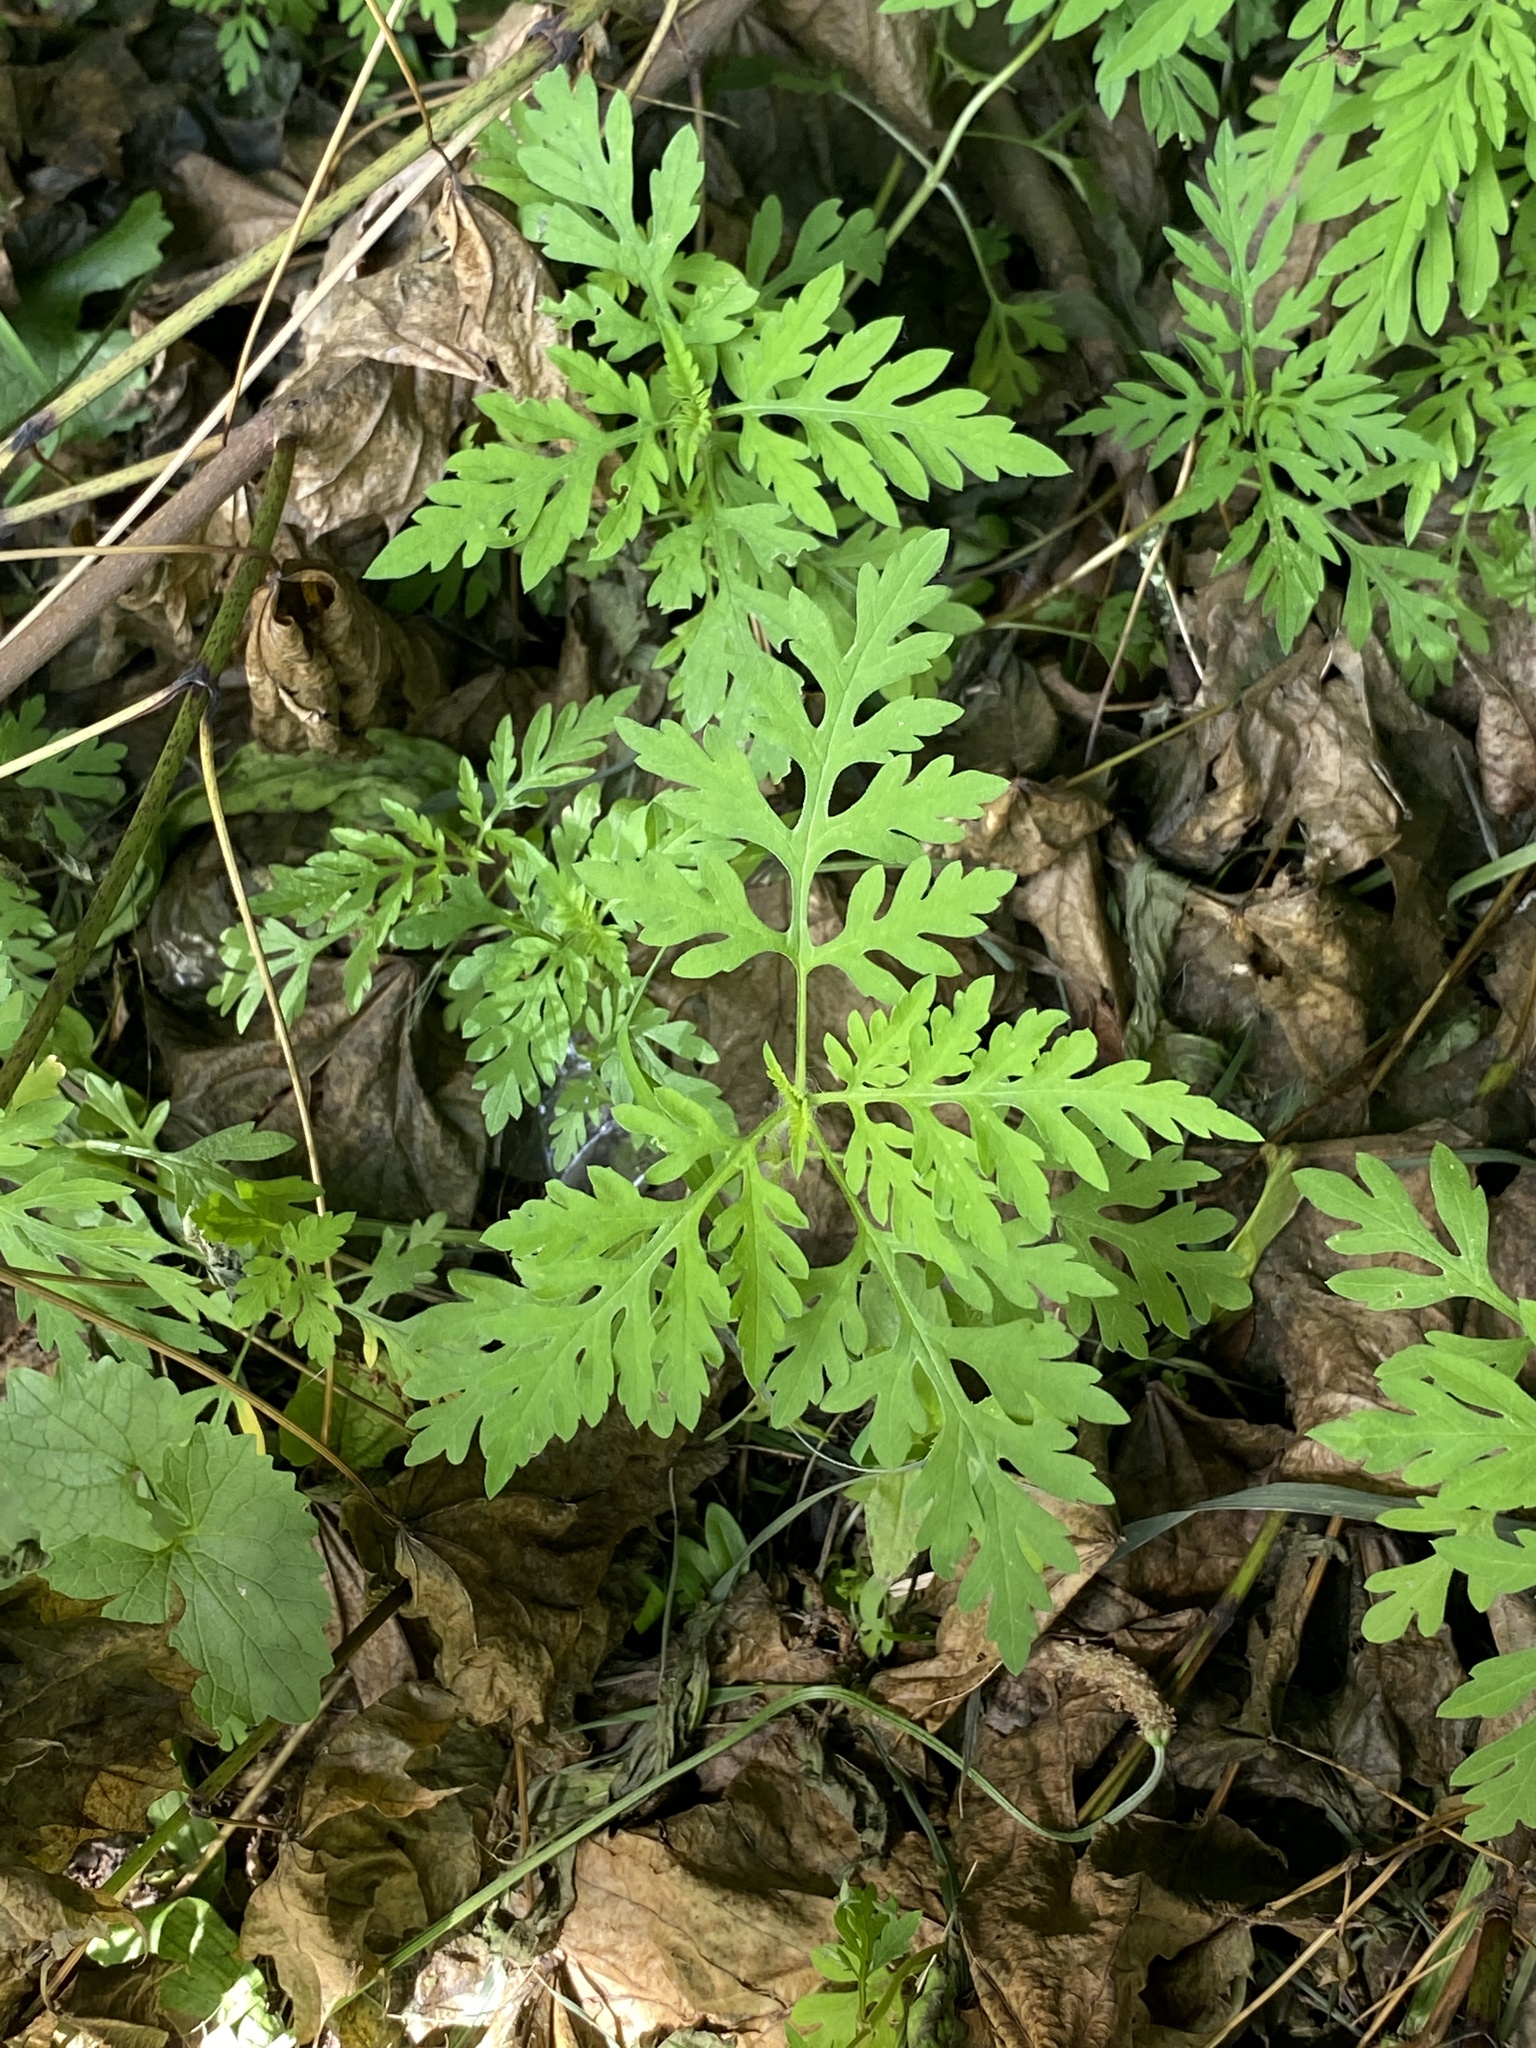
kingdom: Plantae
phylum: Tracheophyta
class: Magnoliopsida
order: Asterales
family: Asteraceae
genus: Ambrosia
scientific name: Ambrosia artemisiifolia
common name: Annual ragweed
